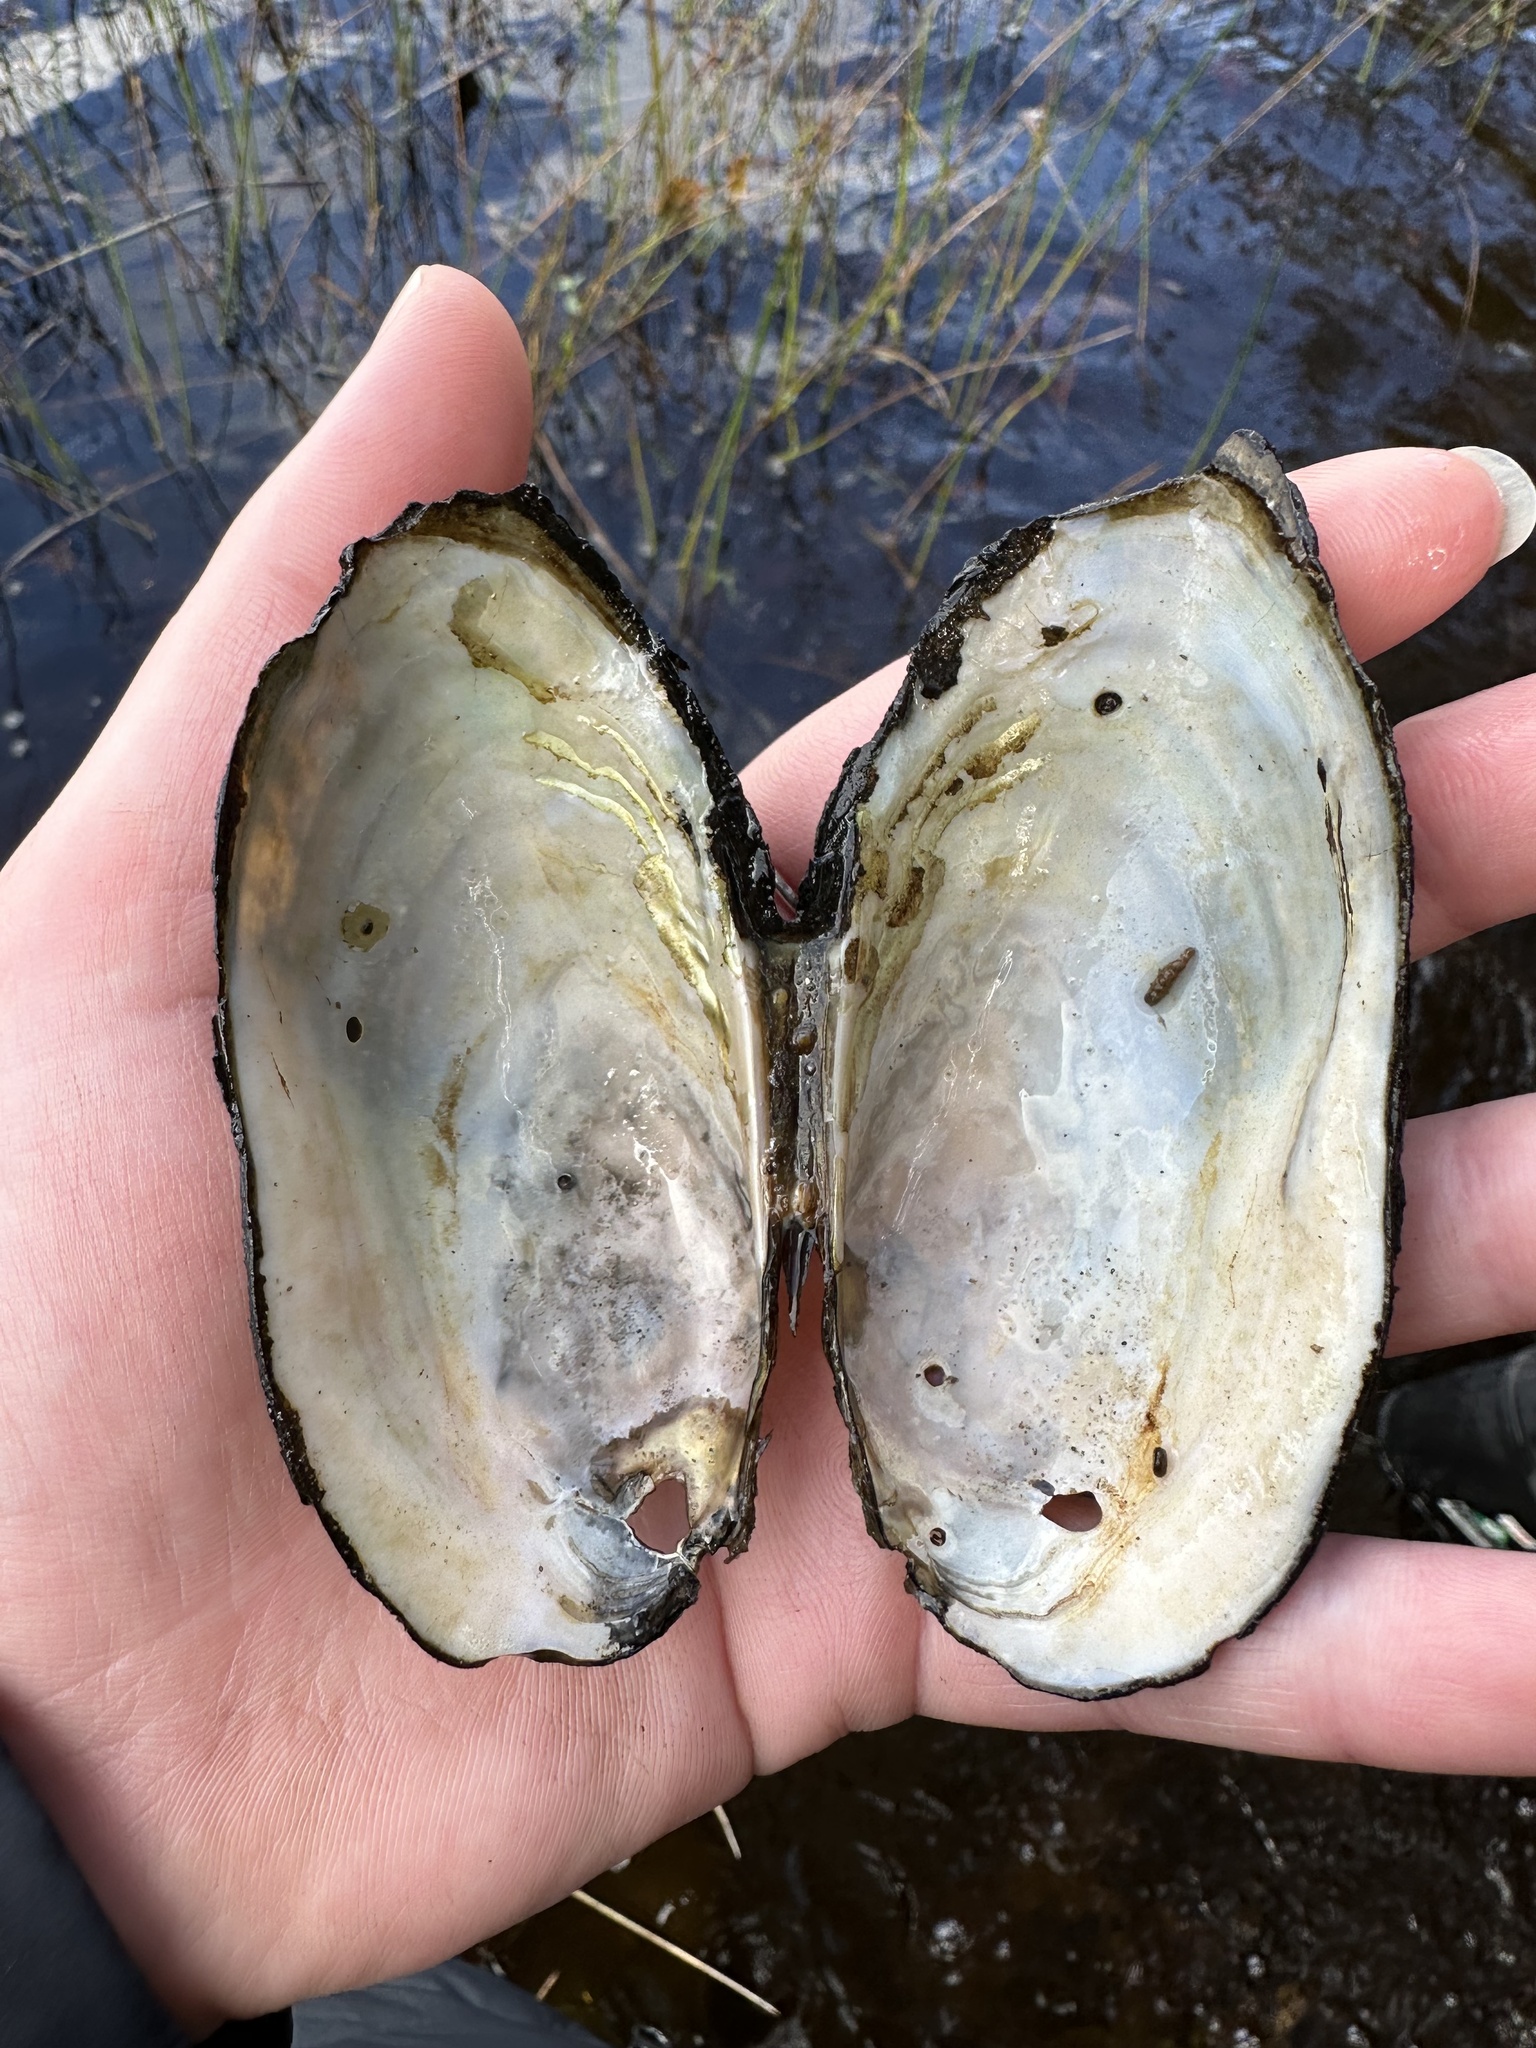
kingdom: Animalia
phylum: Mollusca
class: Bivalvia
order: Unionida
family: Unionidae
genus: Utterbackiana
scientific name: Utterbackiana implicata
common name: Alewife floater
